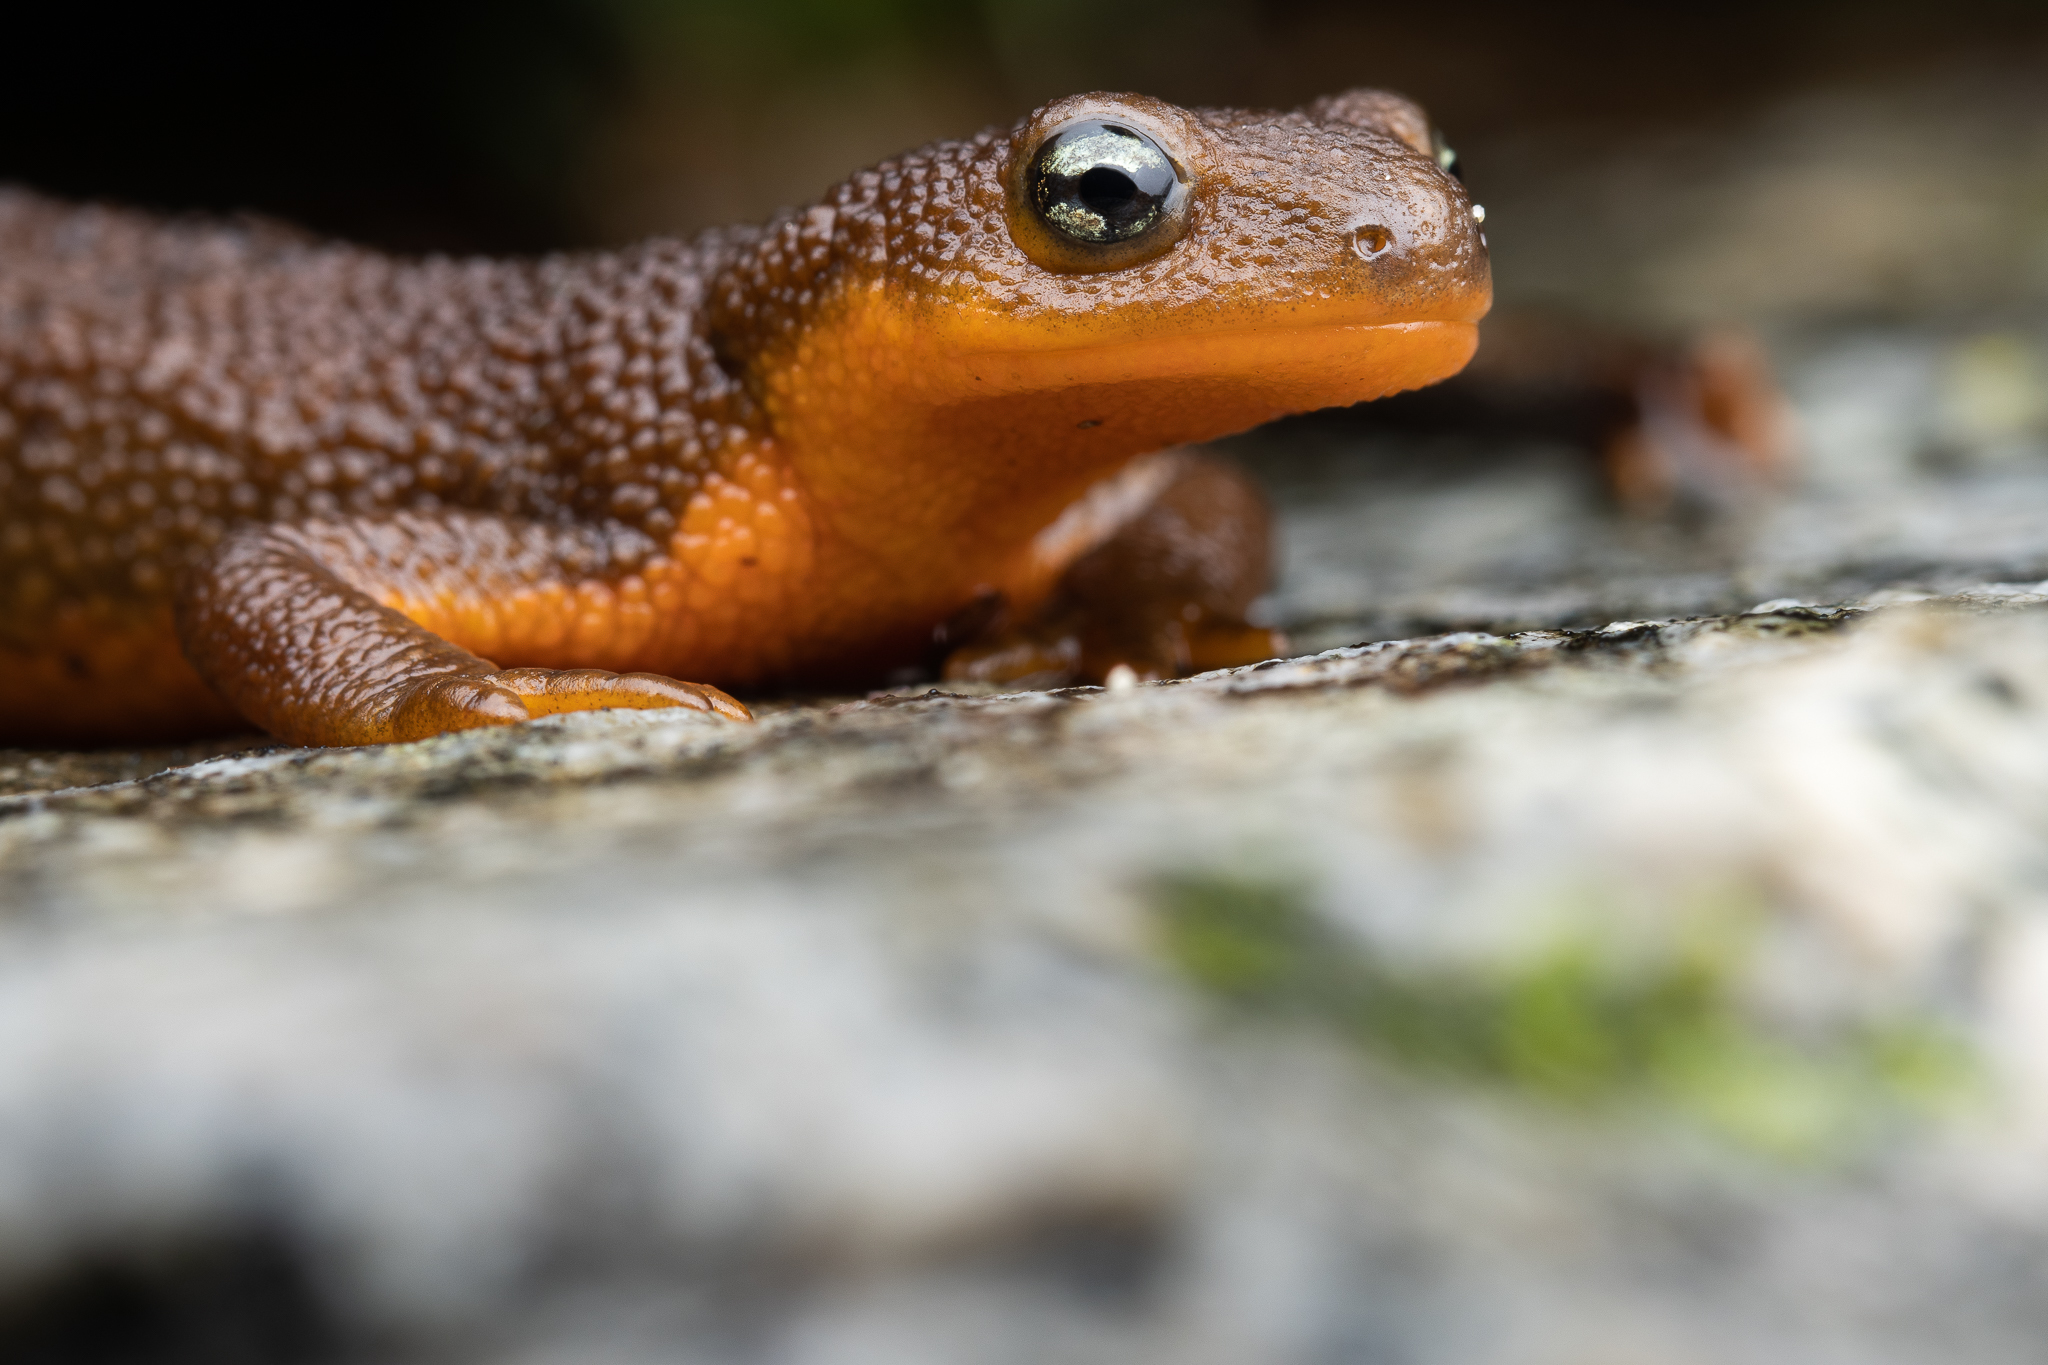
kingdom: Animalia
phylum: Chordata
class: Amphibia
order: Caudata
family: Salamandridae
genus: Taricha
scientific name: Taricha granulosa
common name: Roughskin newt
